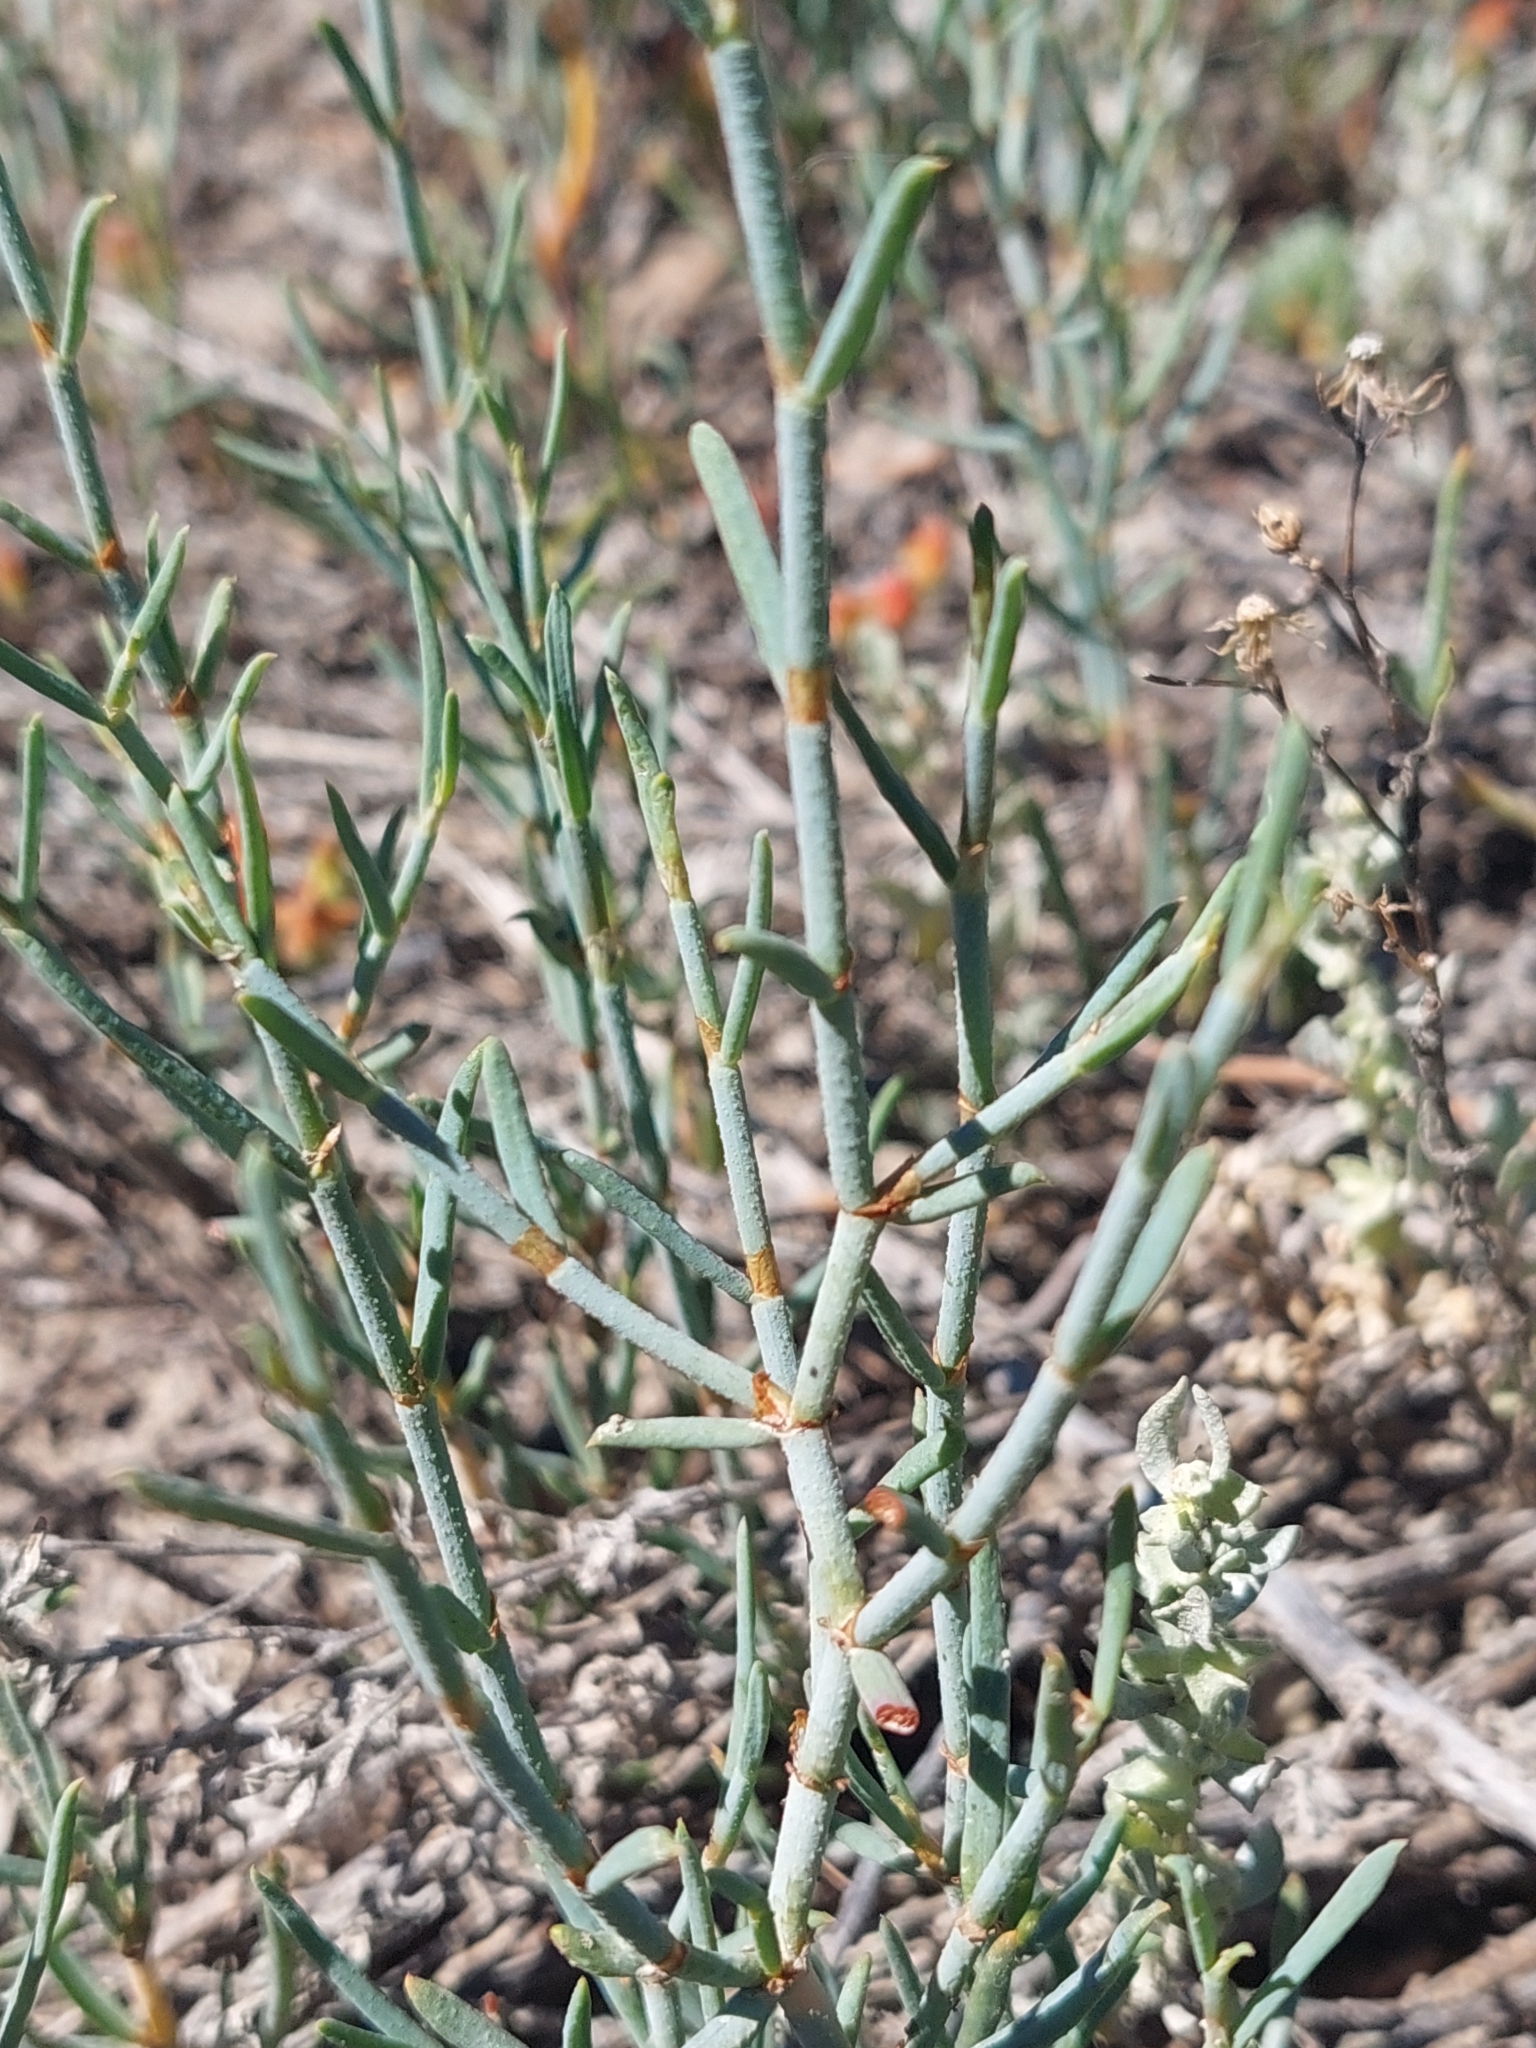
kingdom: Plantae
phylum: Tracheophyta
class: Magnoliopsida
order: Caryophyllales
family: Polygonaceae
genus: Duma
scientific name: Duma horrida
